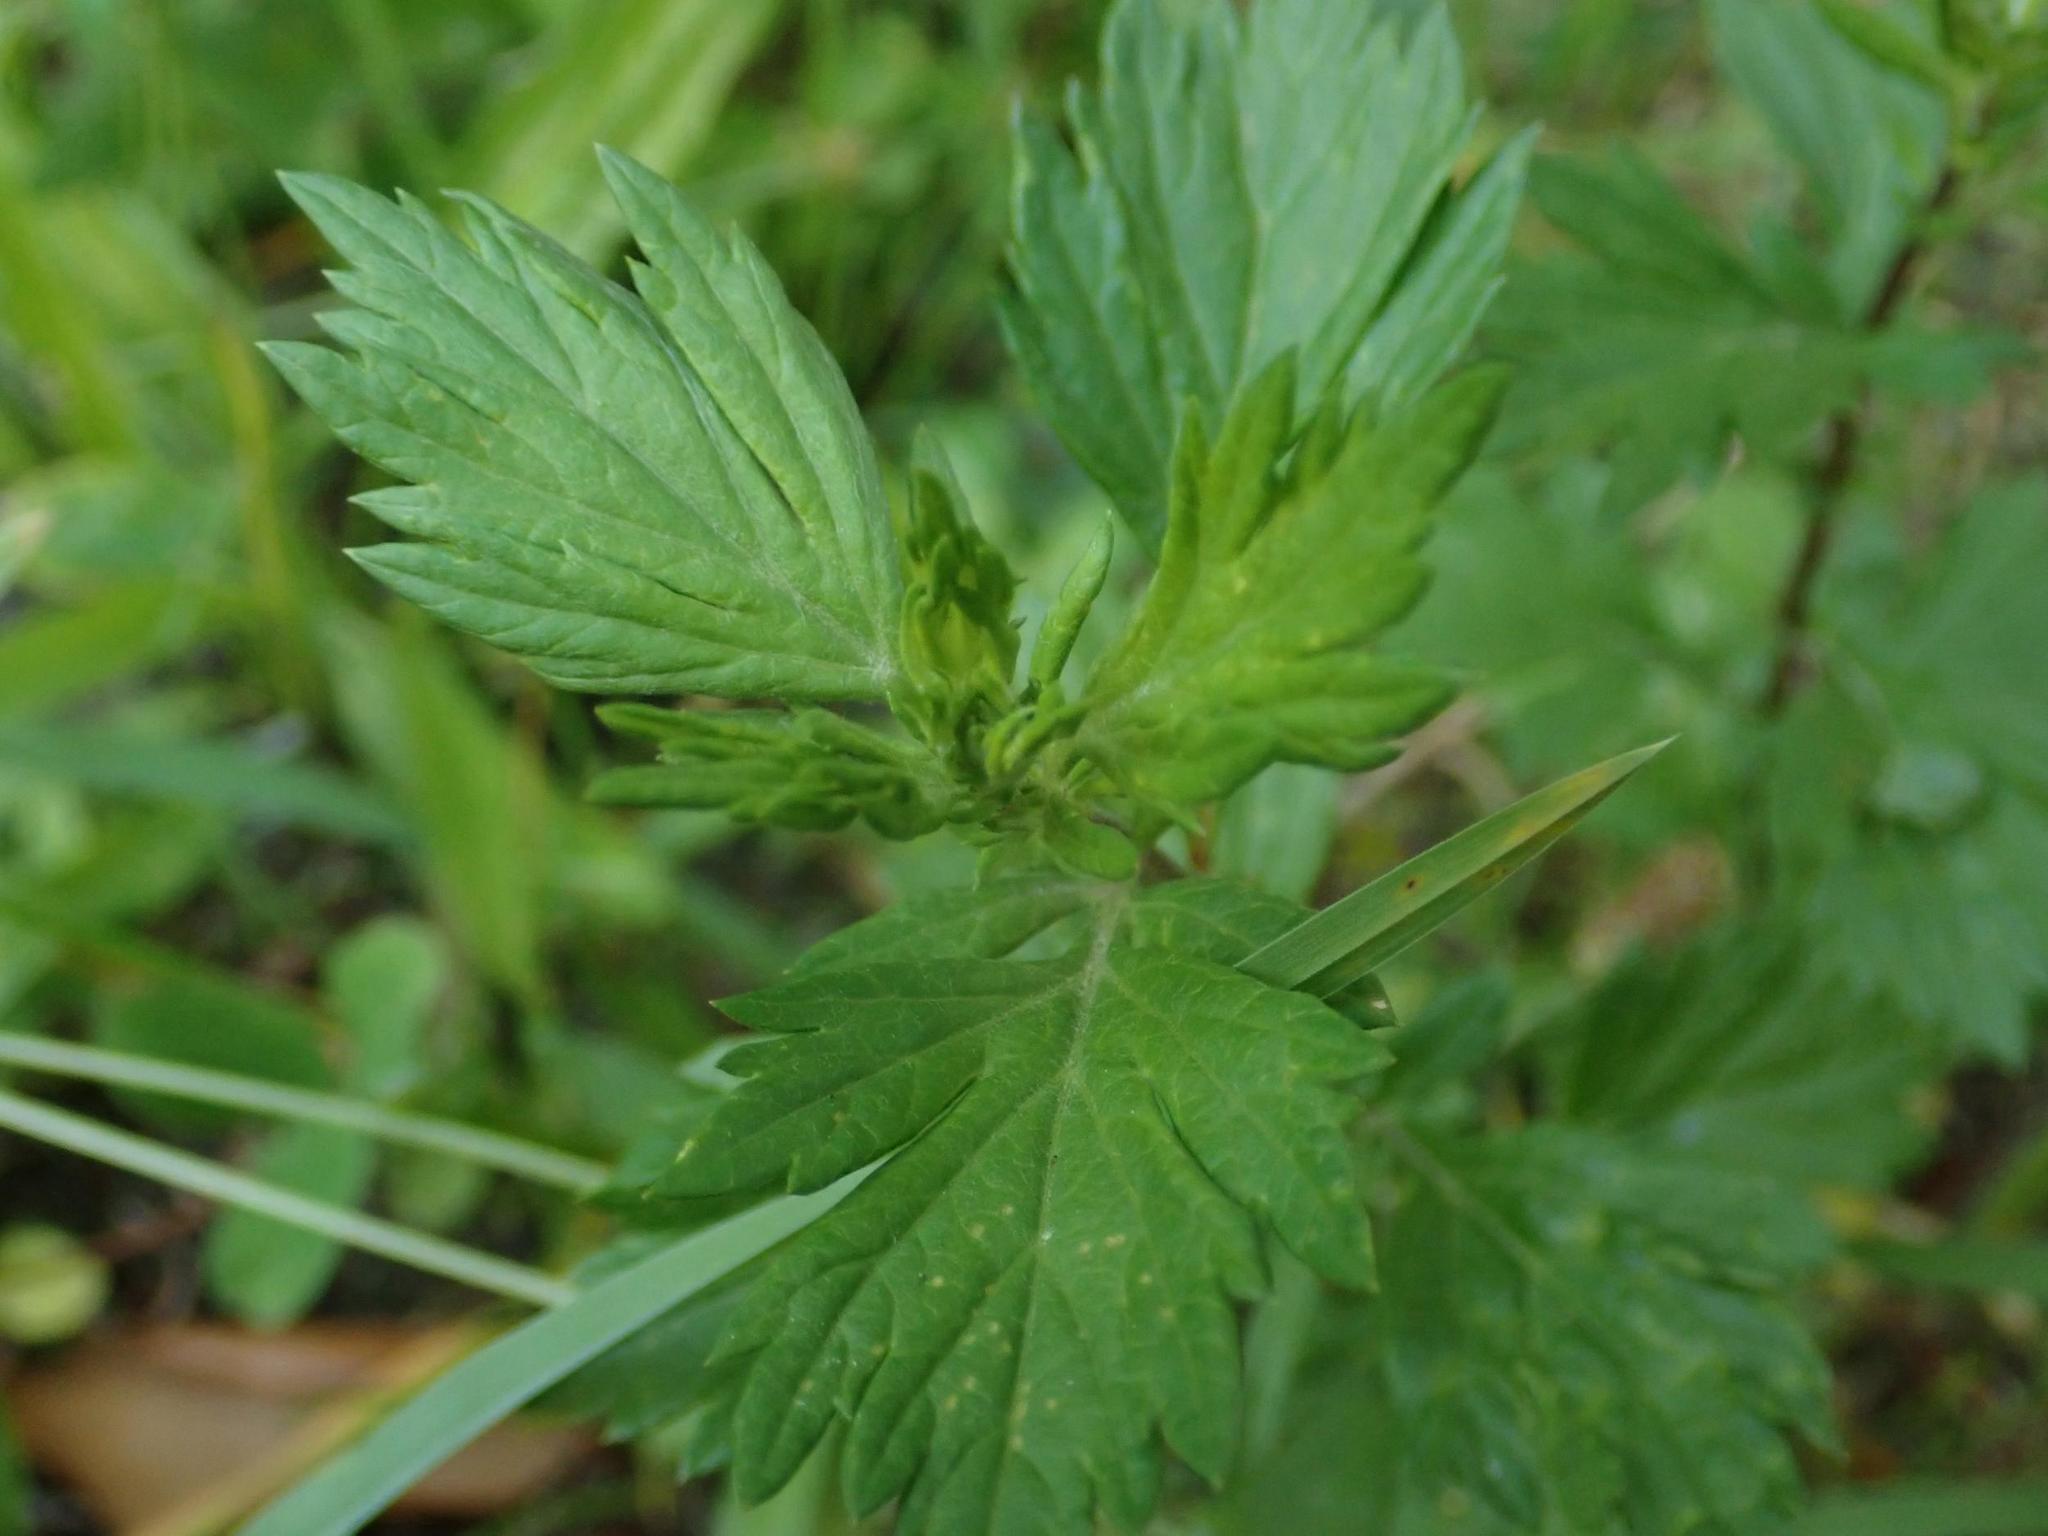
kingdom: Plantae
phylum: Tracheophyta
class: Magnoliopsida
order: Asterales
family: Asteraceae
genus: Artemisia
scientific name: Artemisia vulgaris
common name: Mugwort
